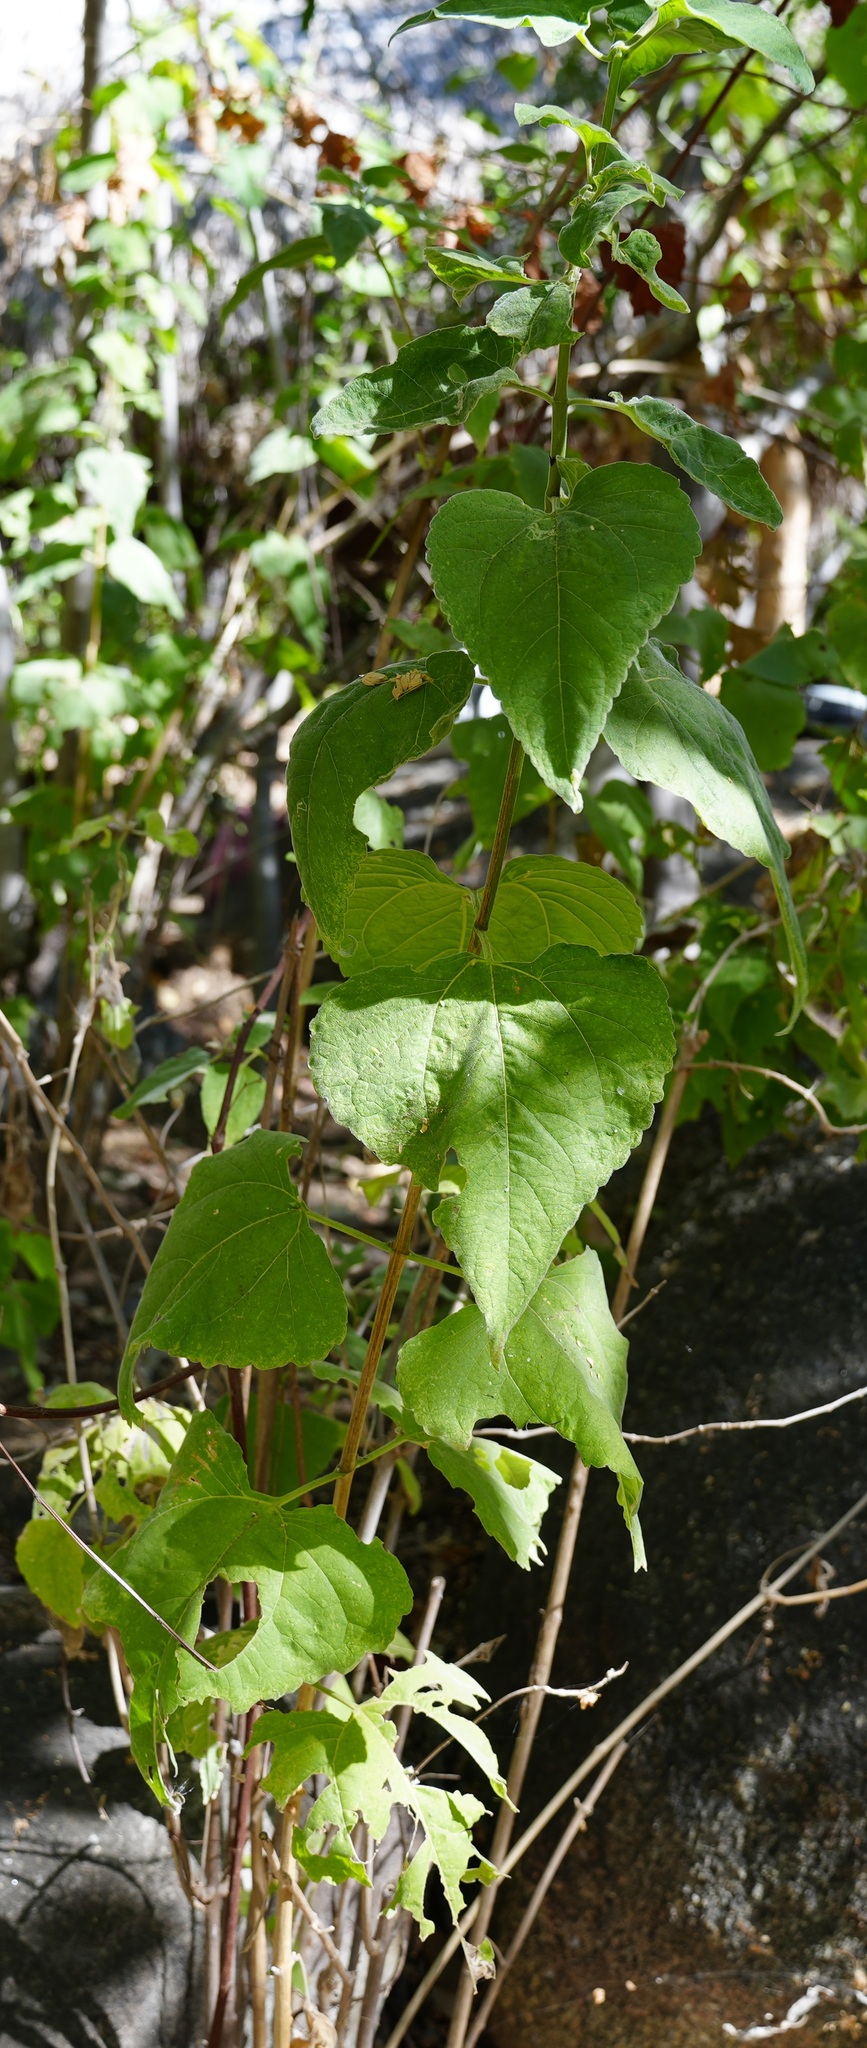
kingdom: Plantae
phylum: Tracheophyta
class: Magnoliopsida
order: Caryophyllales
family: Polygonaceae
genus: Antigonon
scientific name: Antigonon leptopus
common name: Coral vine
